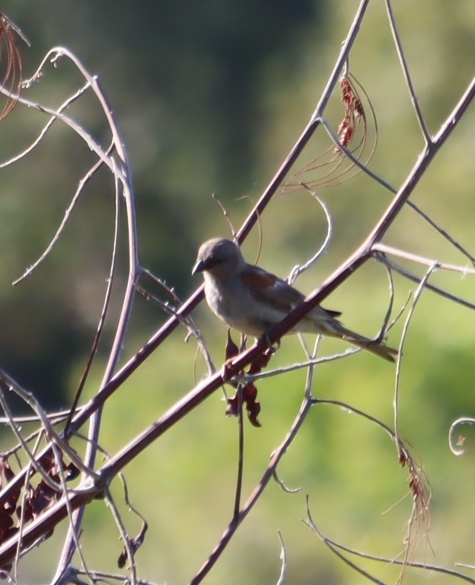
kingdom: Animalia
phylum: Chordata
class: Aves
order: Passeriformes
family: Passeridae
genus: Passer
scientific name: Passer diffusus
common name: Southern grey-headed sparrow
